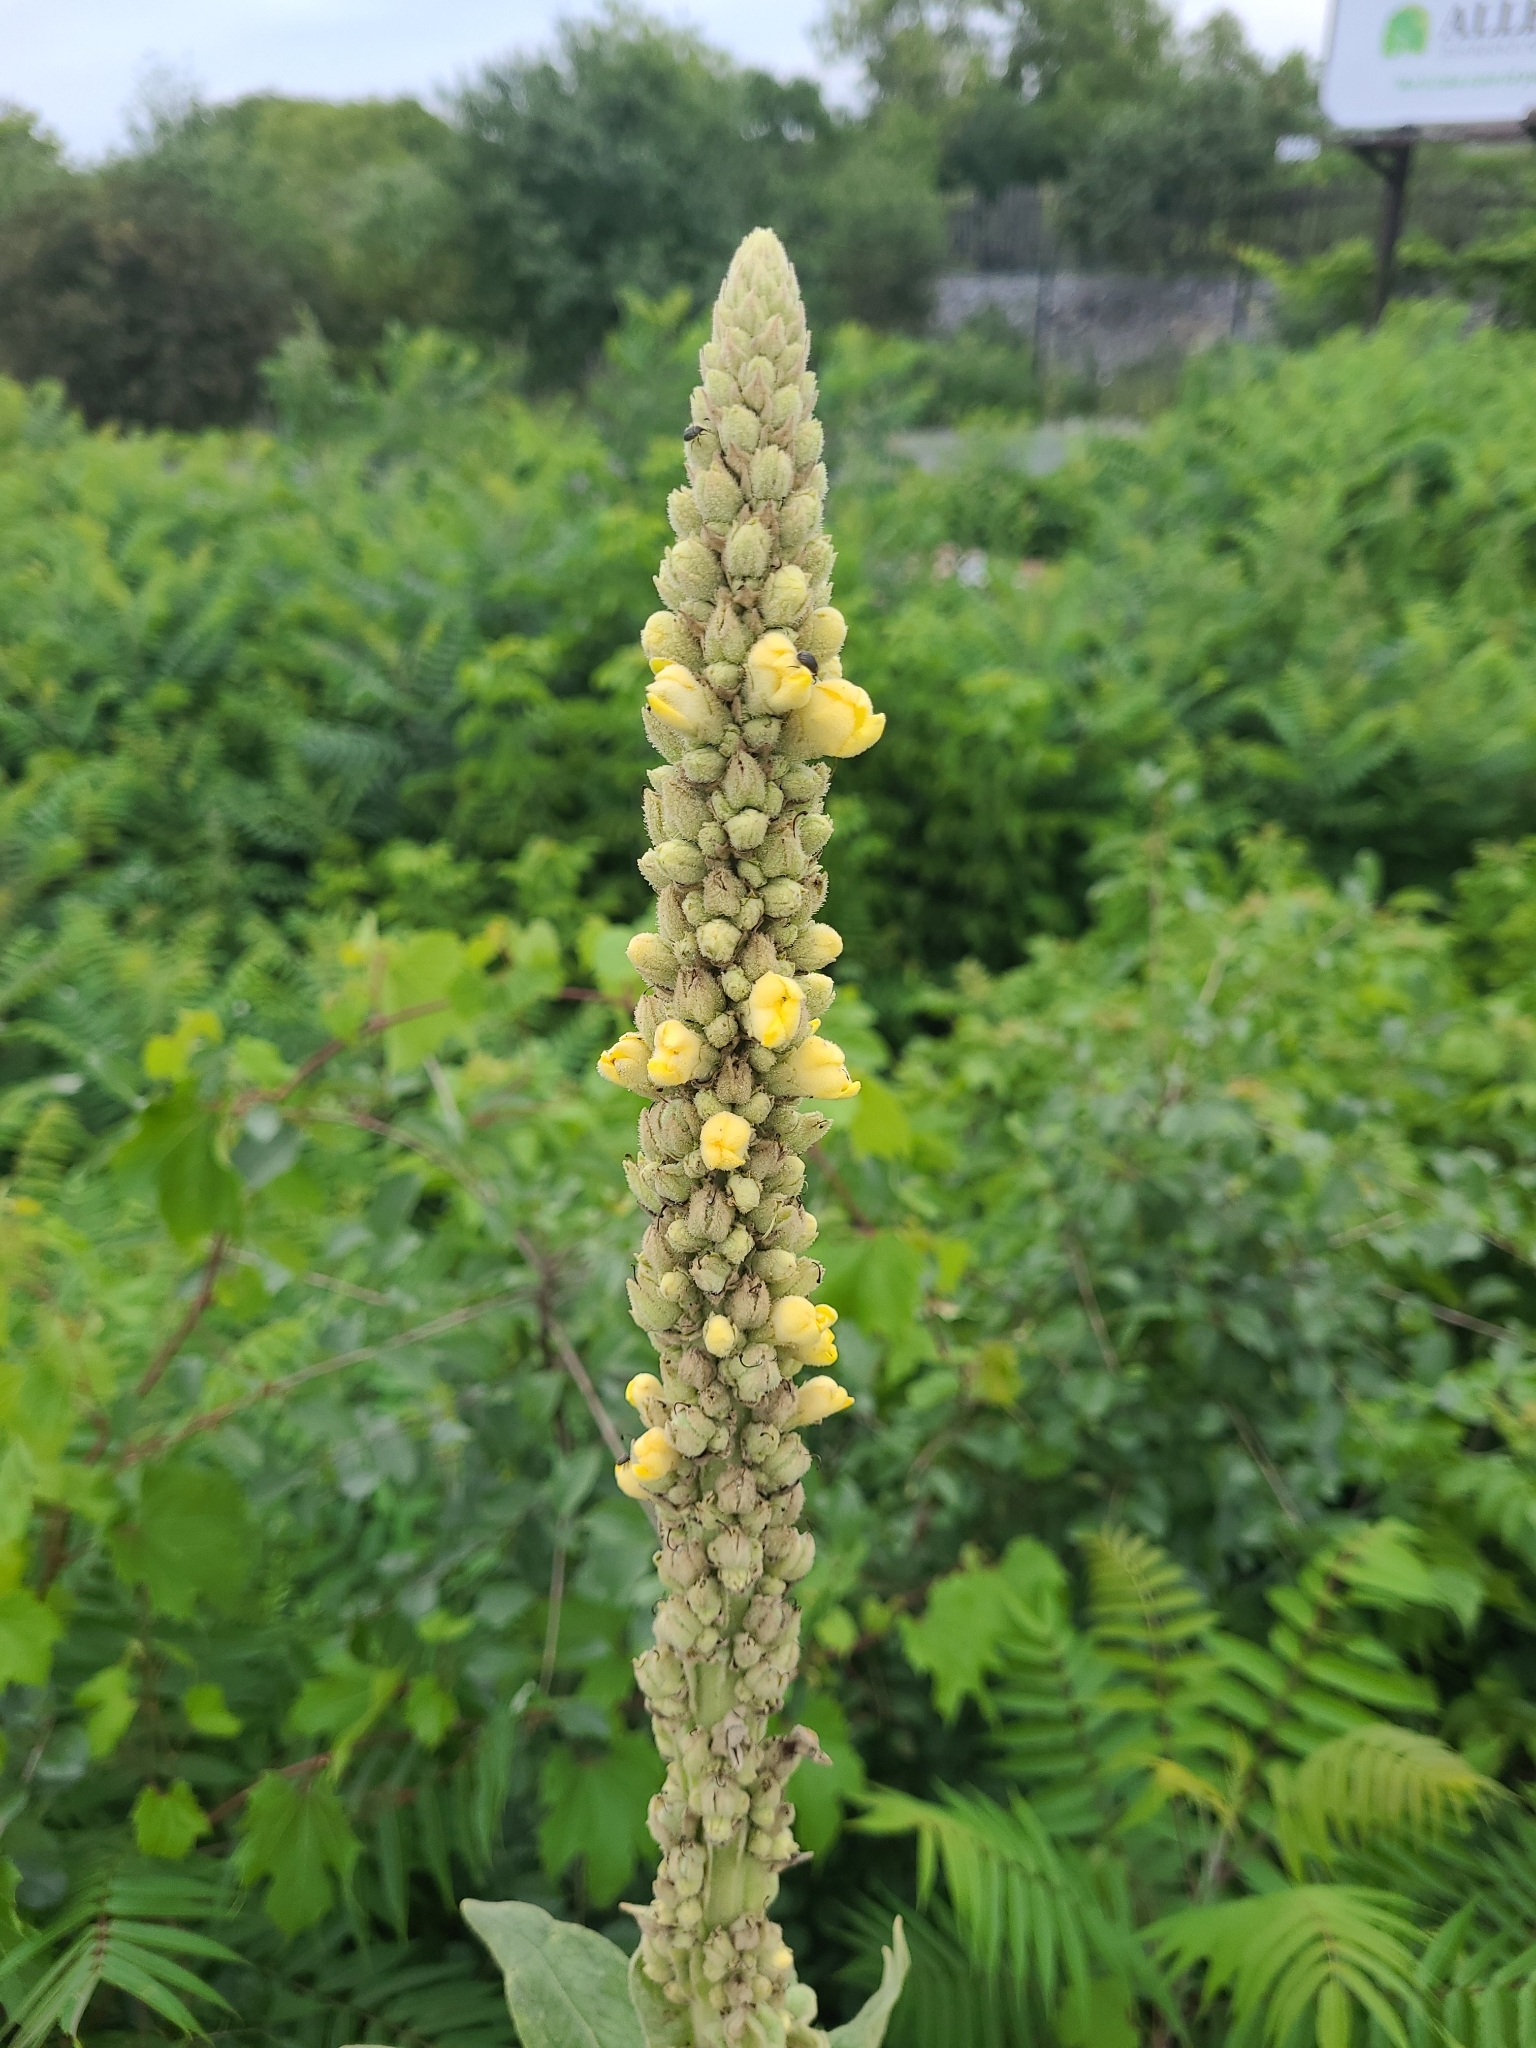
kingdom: Plantae
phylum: Tracheophyta
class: Magnoliopsida
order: Lamiales
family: Scrophulariaceae
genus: Verbascum
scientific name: Verbascum thapsus
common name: Common mullein
